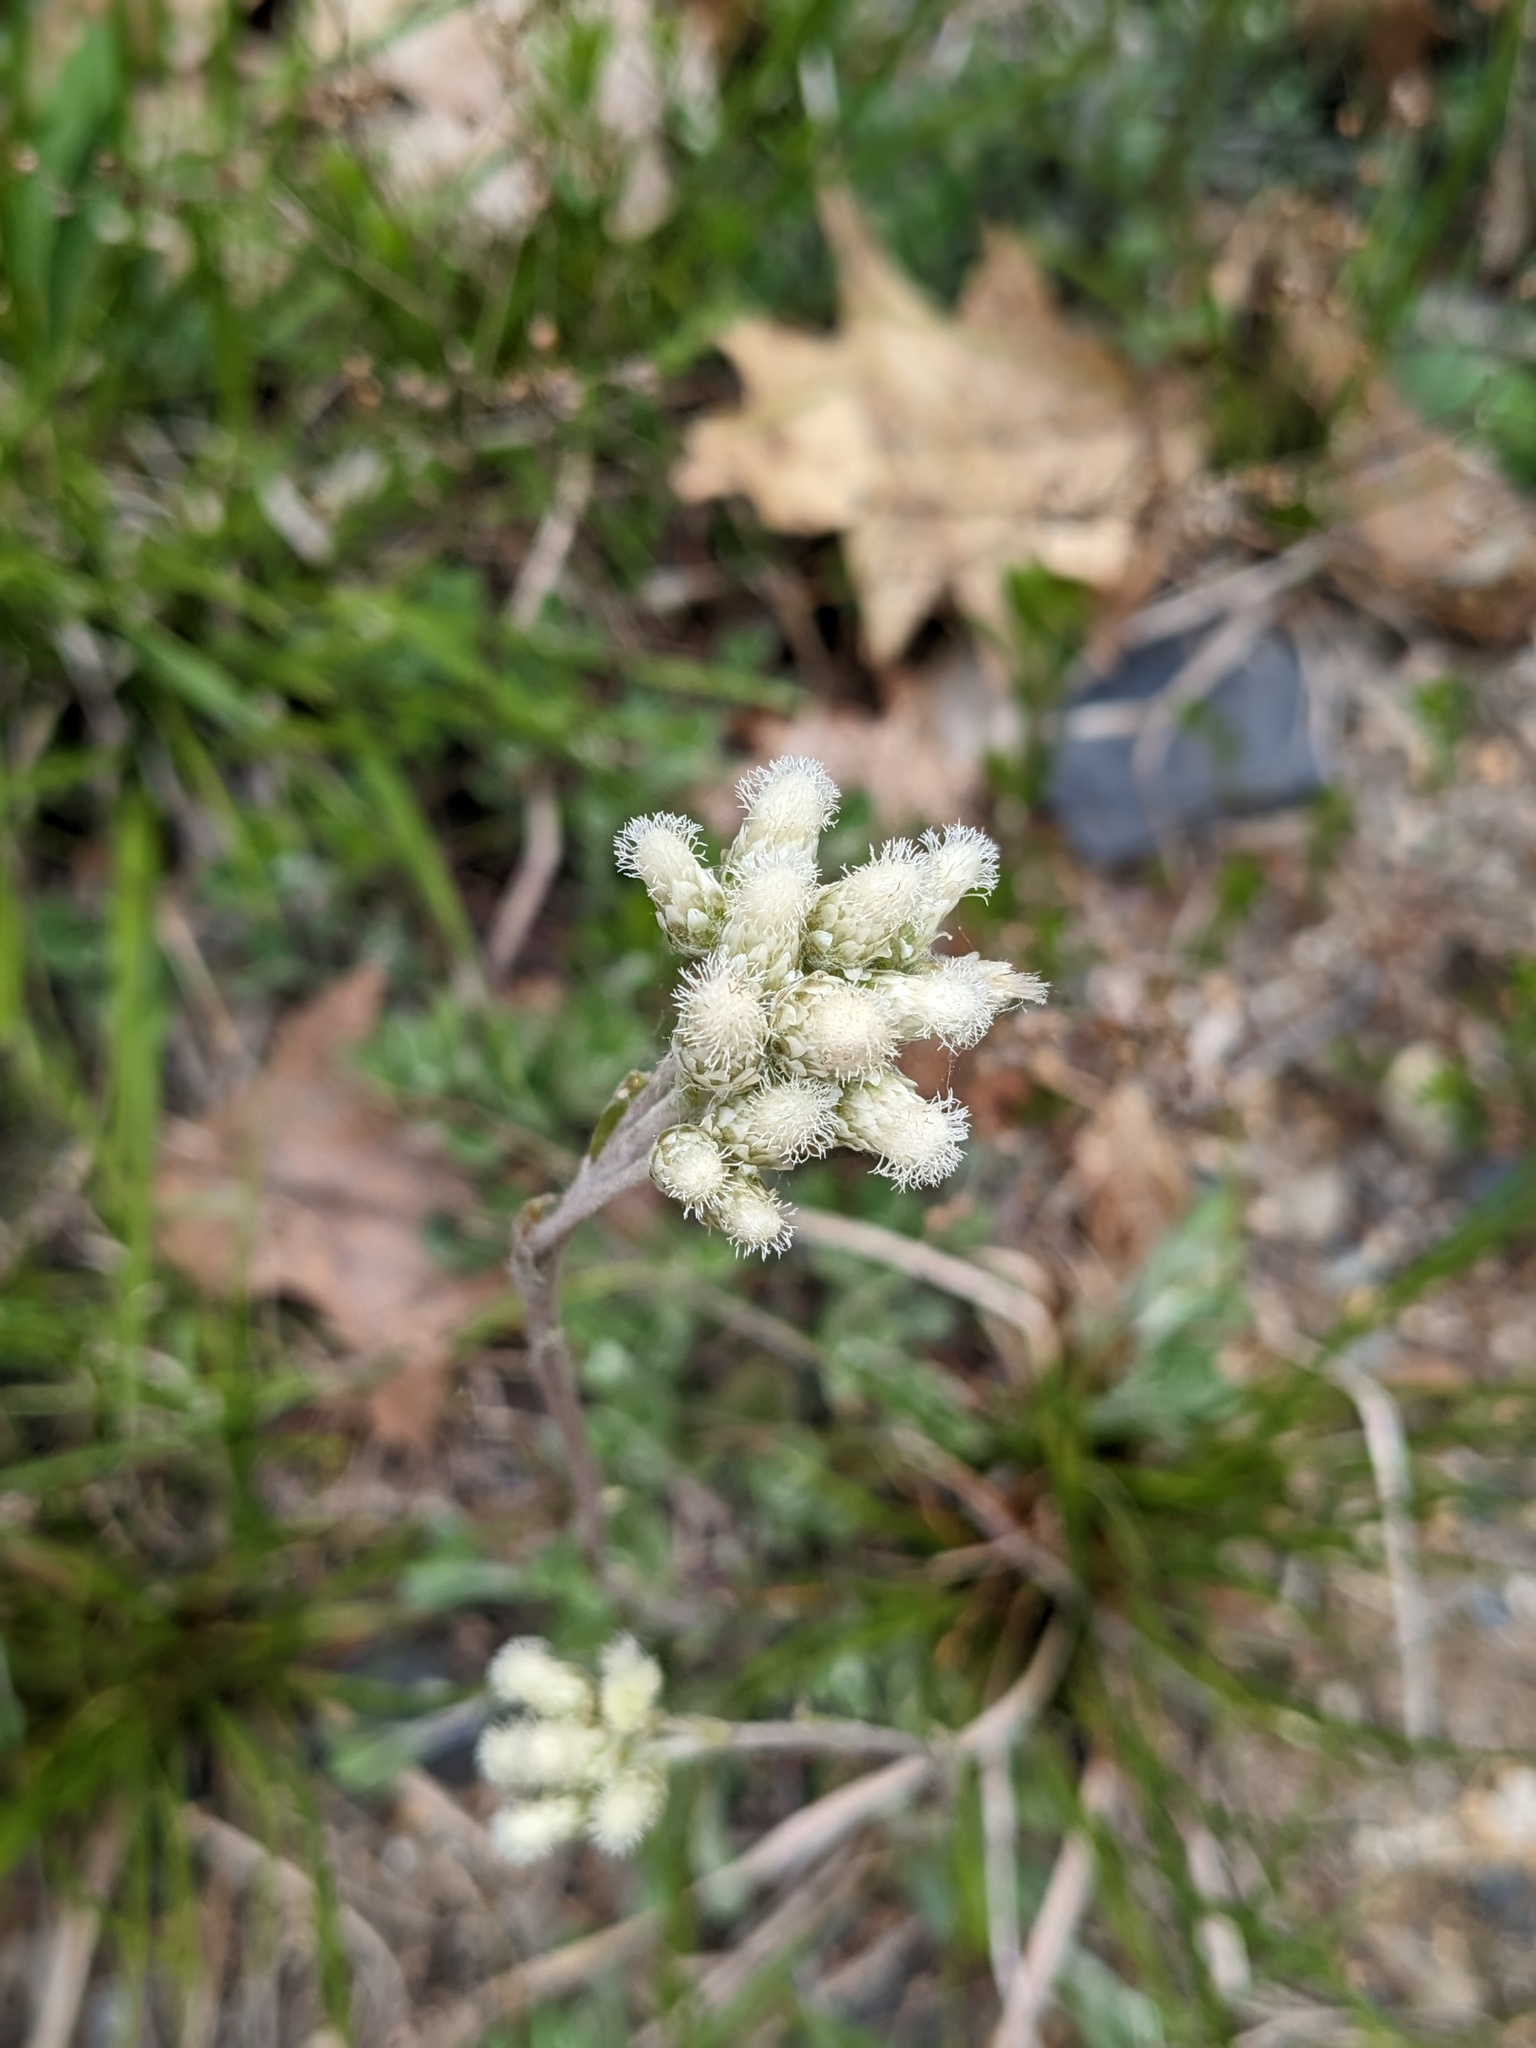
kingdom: Plantae
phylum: Tracheophyta
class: Magnoliopsida
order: Asterales
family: Asteraceae
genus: Antennaria
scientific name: Antennaria howellii
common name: Howell's pussytoes
